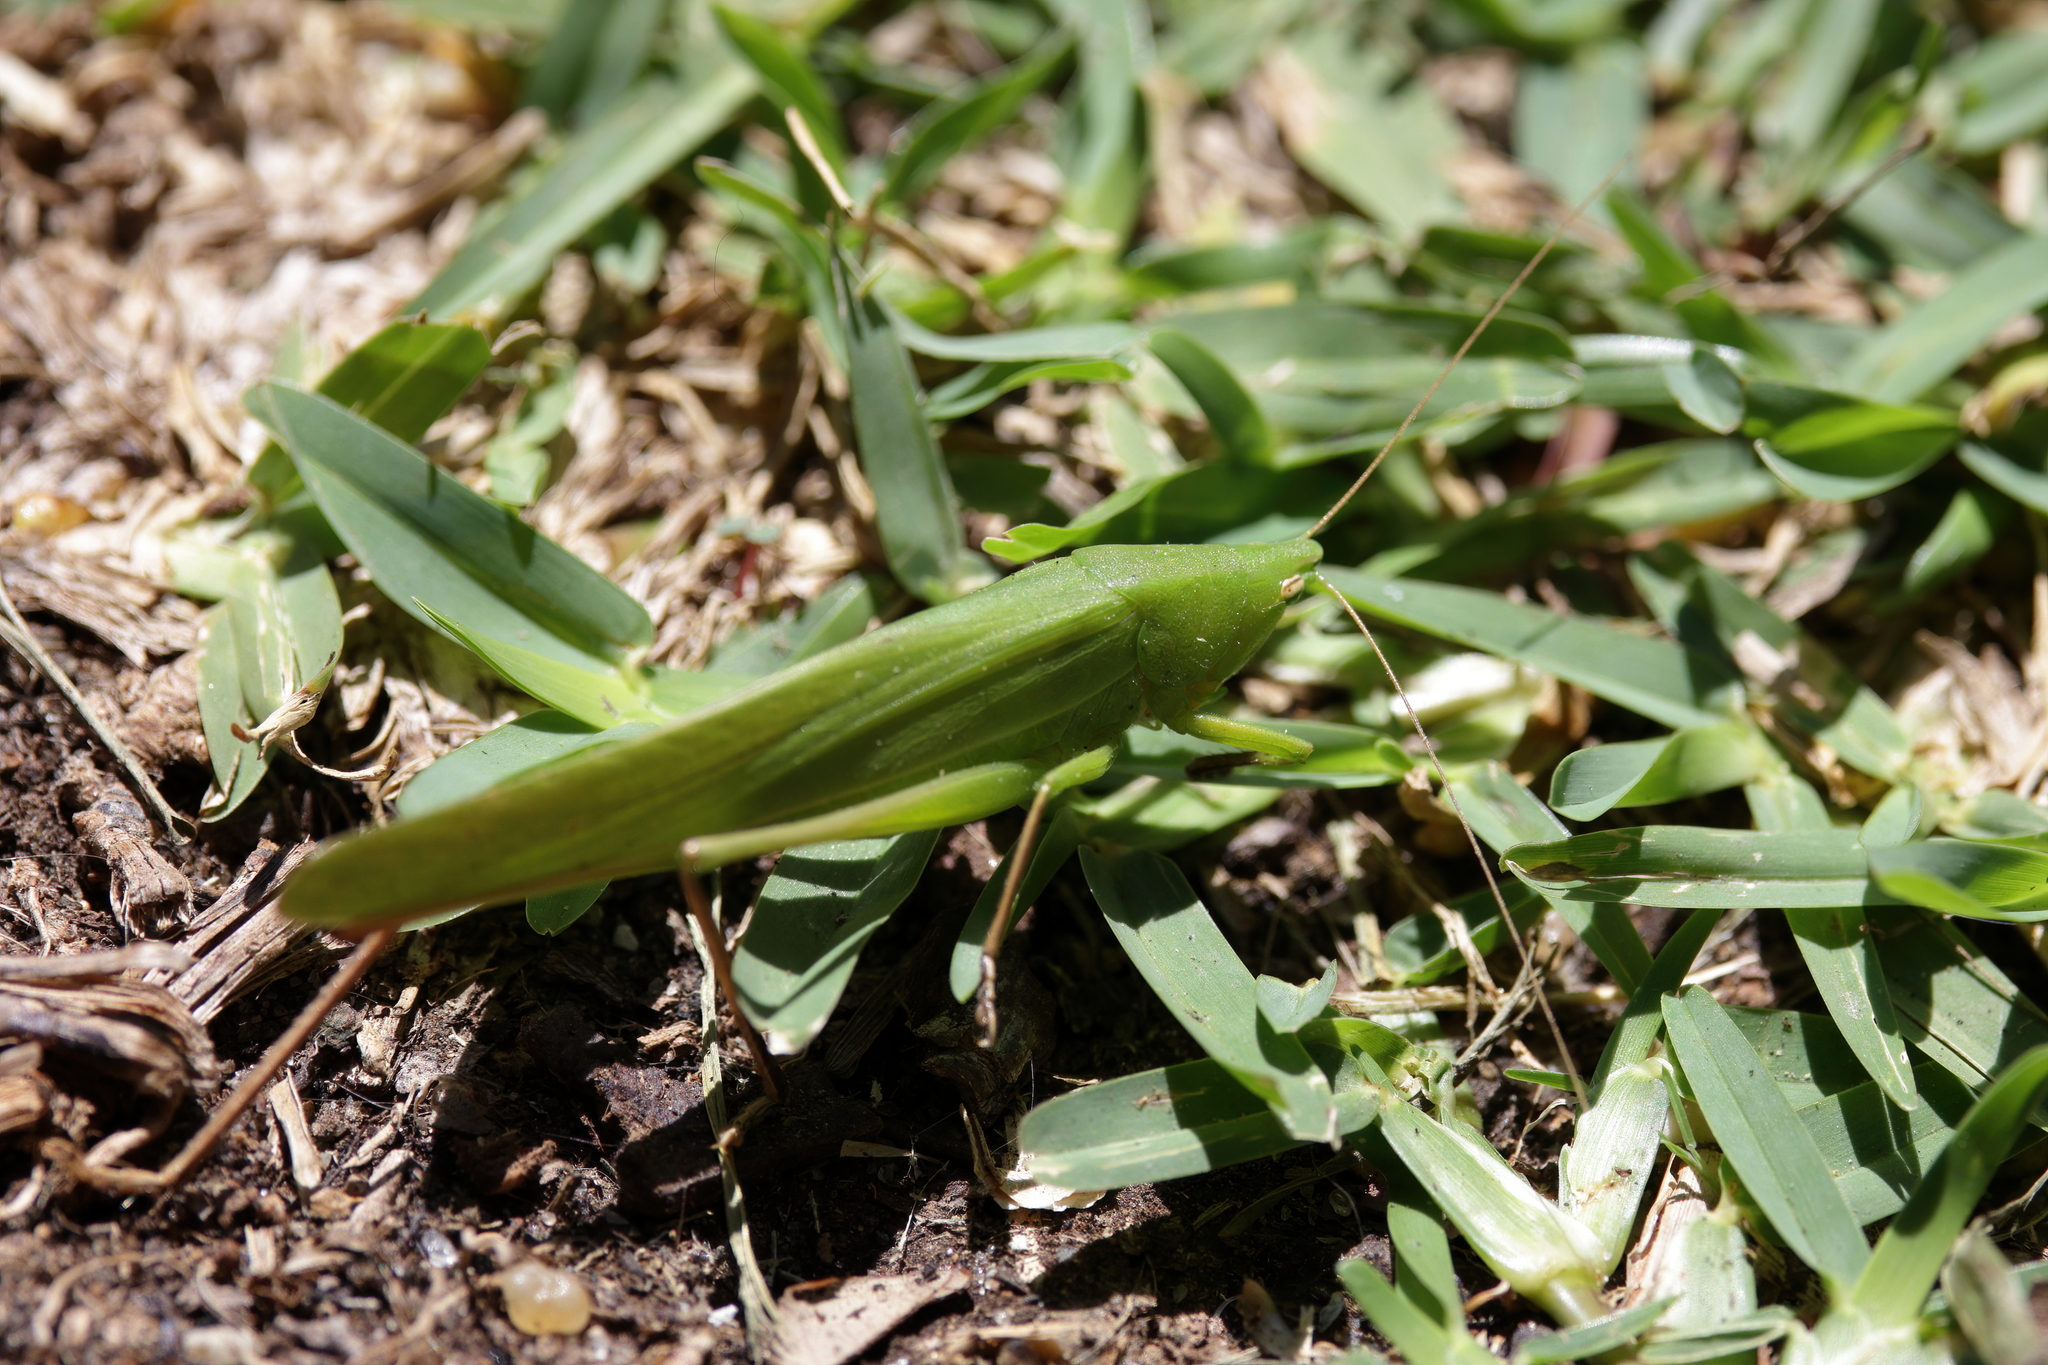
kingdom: Animalia
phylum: Arthropoda
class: Insecta
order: Orthoptera
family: Tettigoniidae
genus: Neoconocephalus
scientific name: Neoconocephalus triops
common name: Broad-tipped conehead
